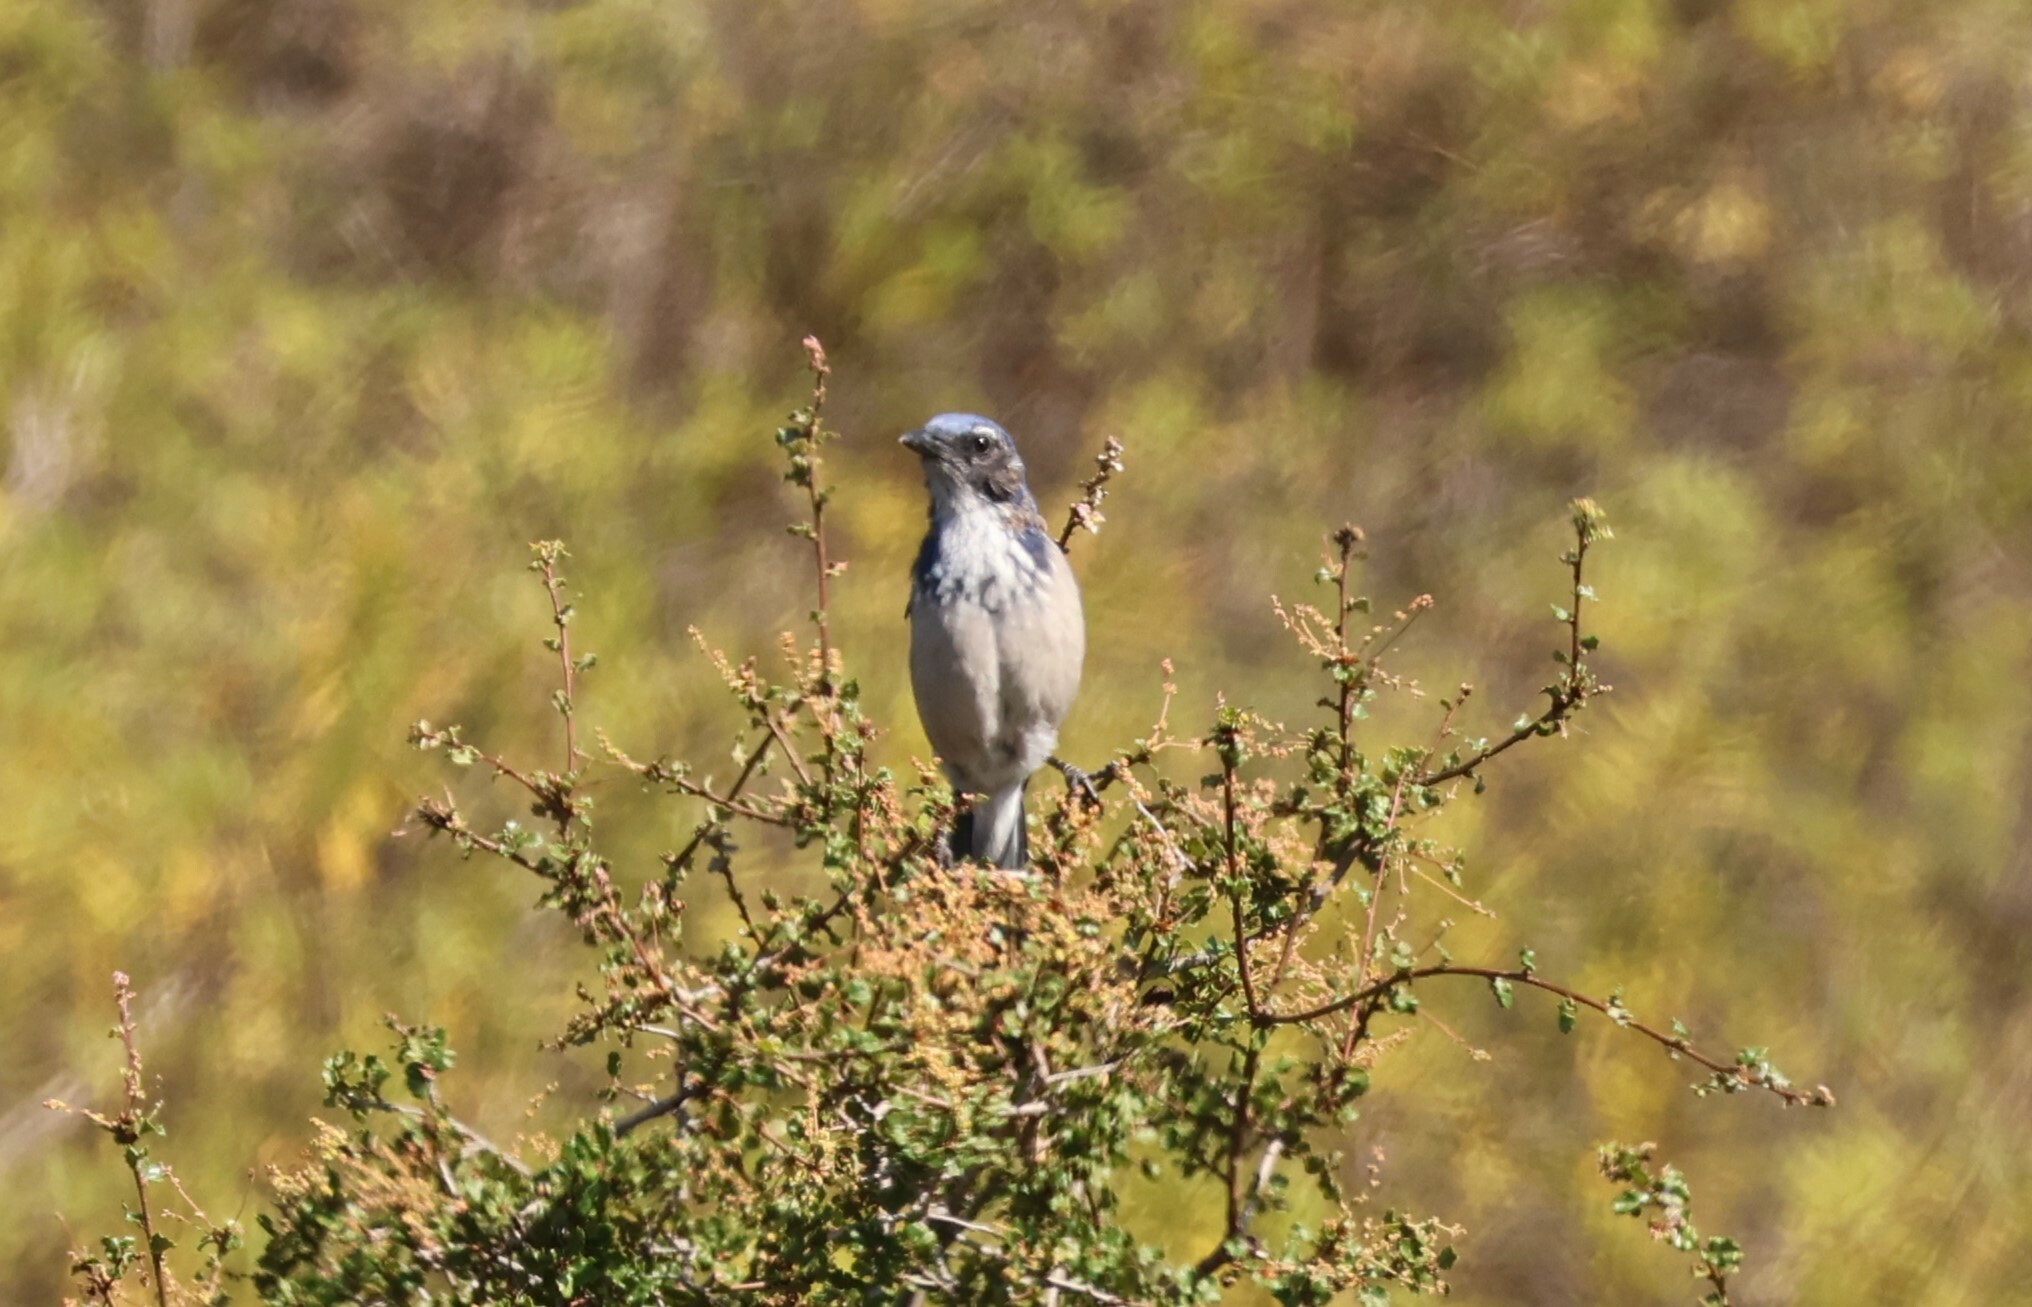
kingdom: Animalia
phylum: Chordata
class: Aves
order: Passeriformes
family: Corvidae
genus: Aphelocoma
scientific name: Aphelocoma californica
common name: California scrub-jay
